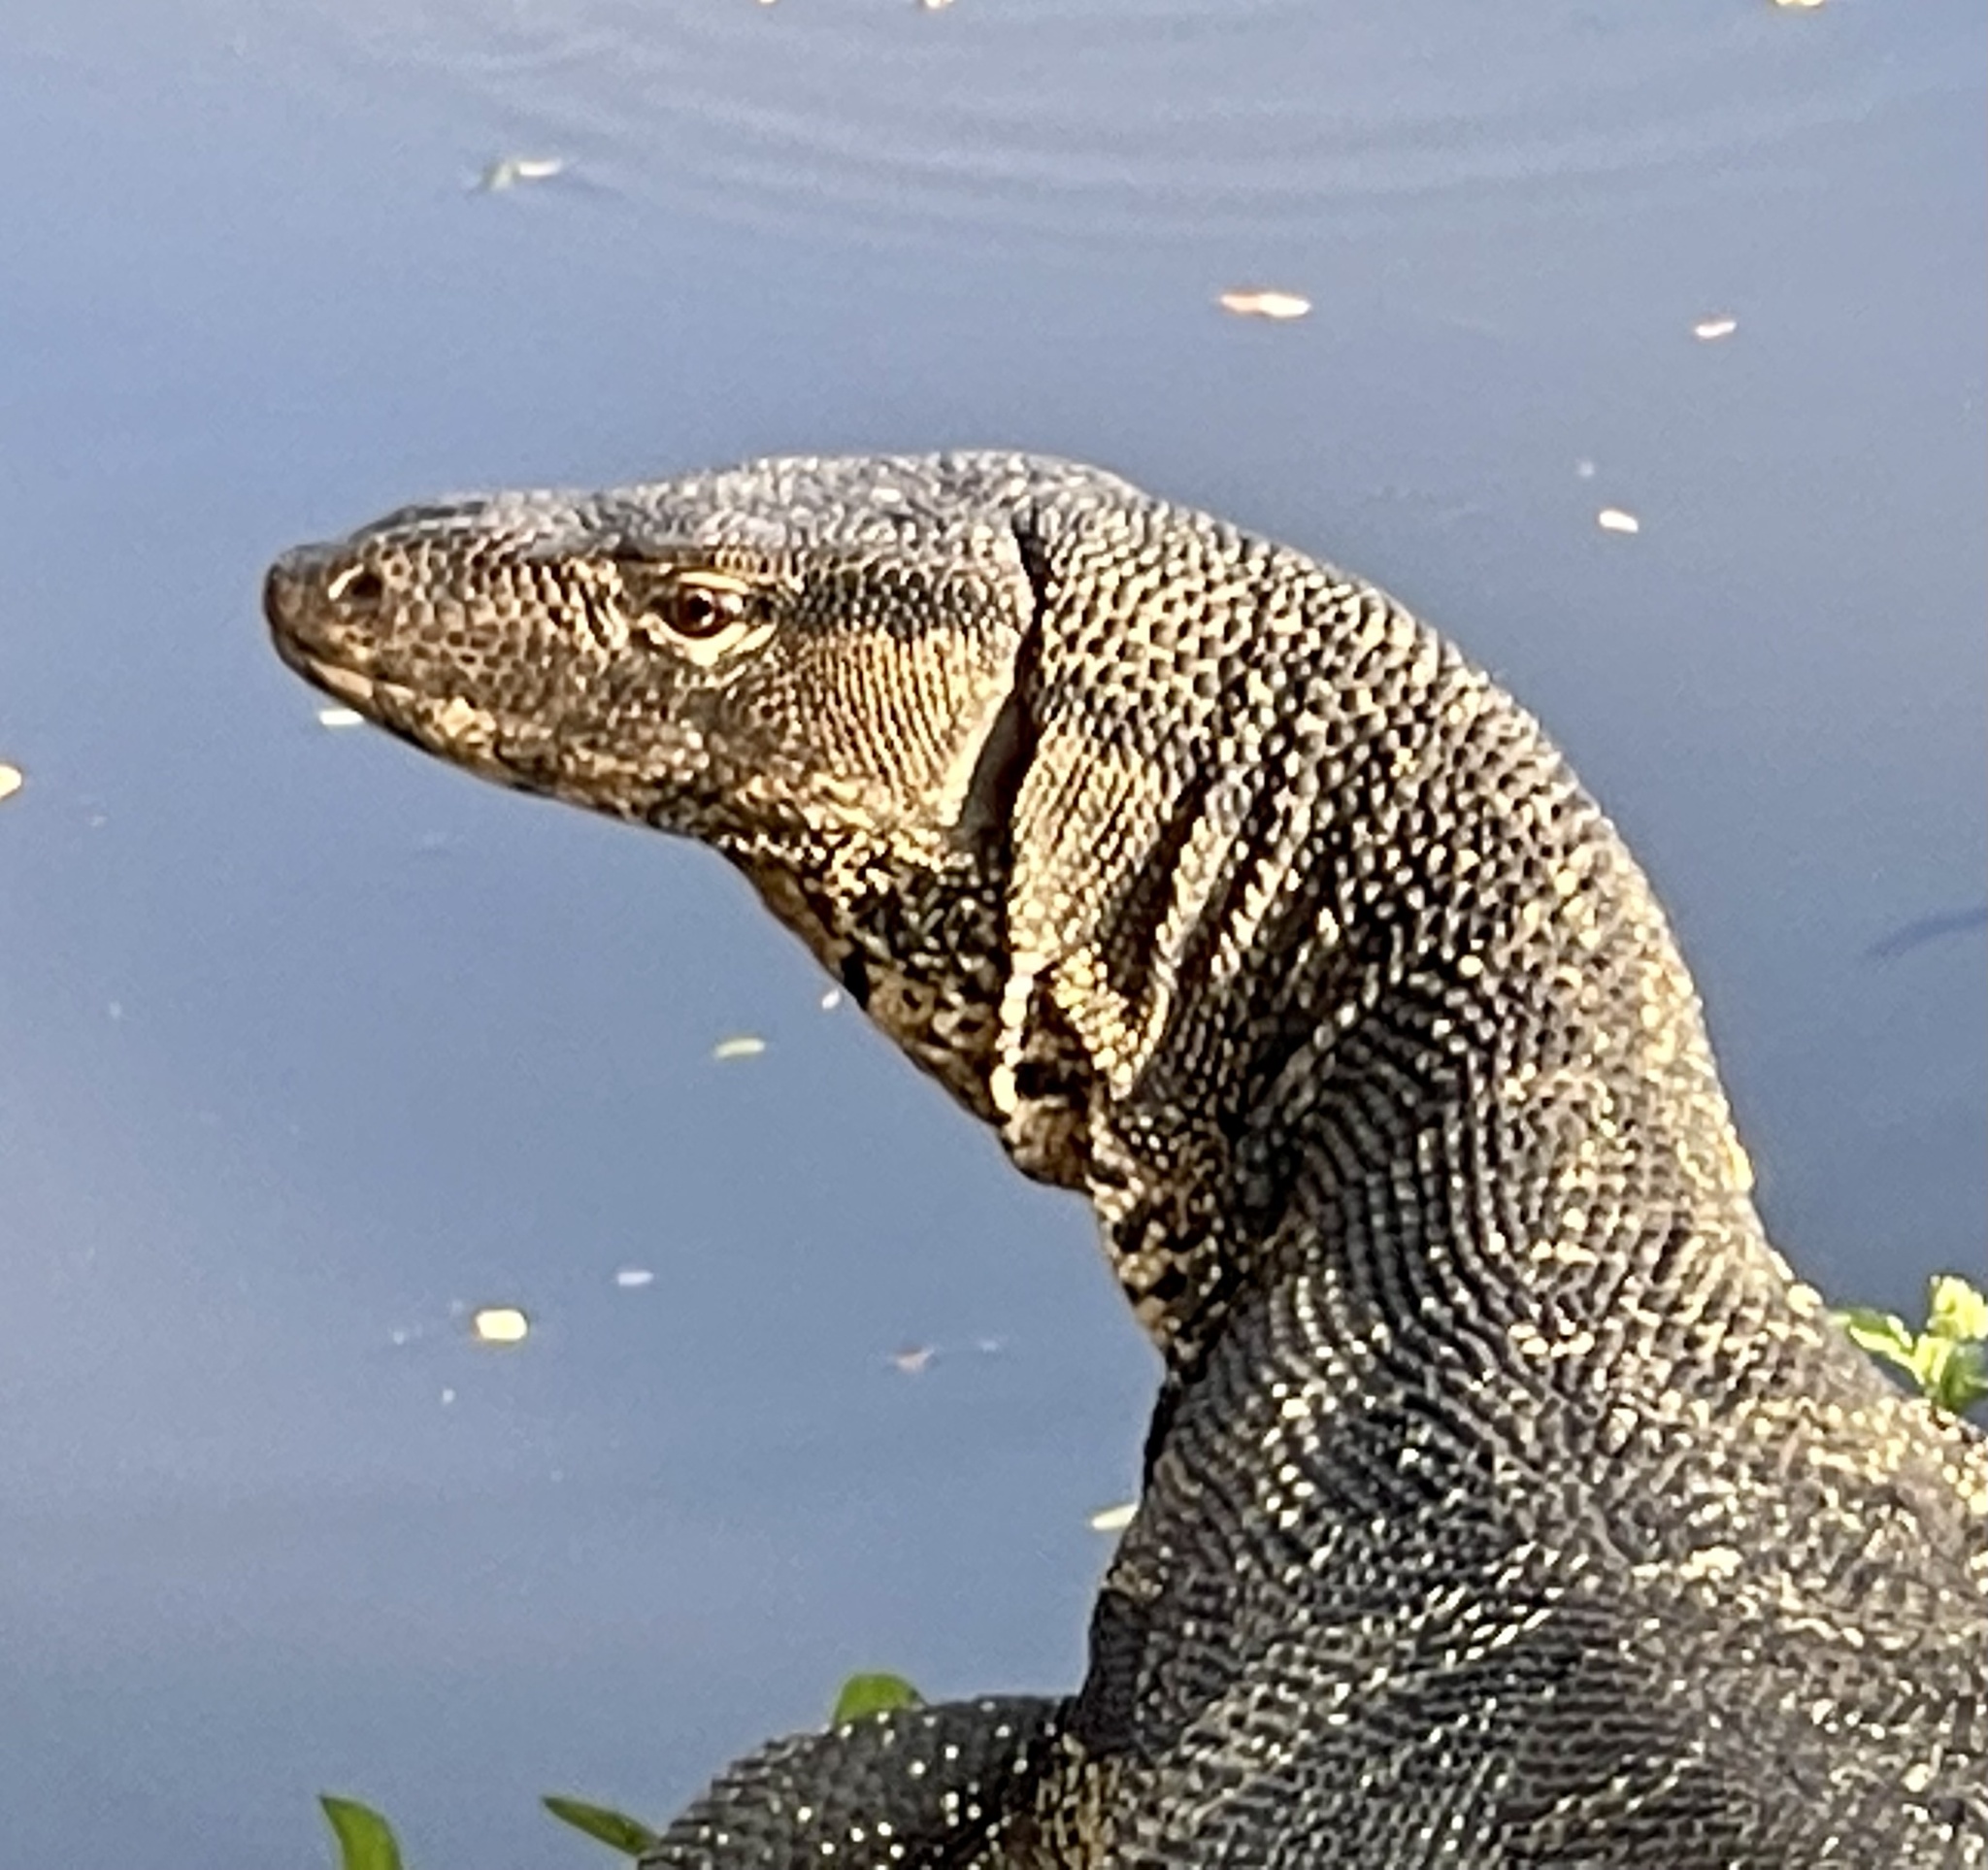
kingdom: Animalia
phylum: Chordata
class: Squamata
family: Varanidae
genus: Varanus
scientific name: Varanus salvator
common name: Common water monitor
